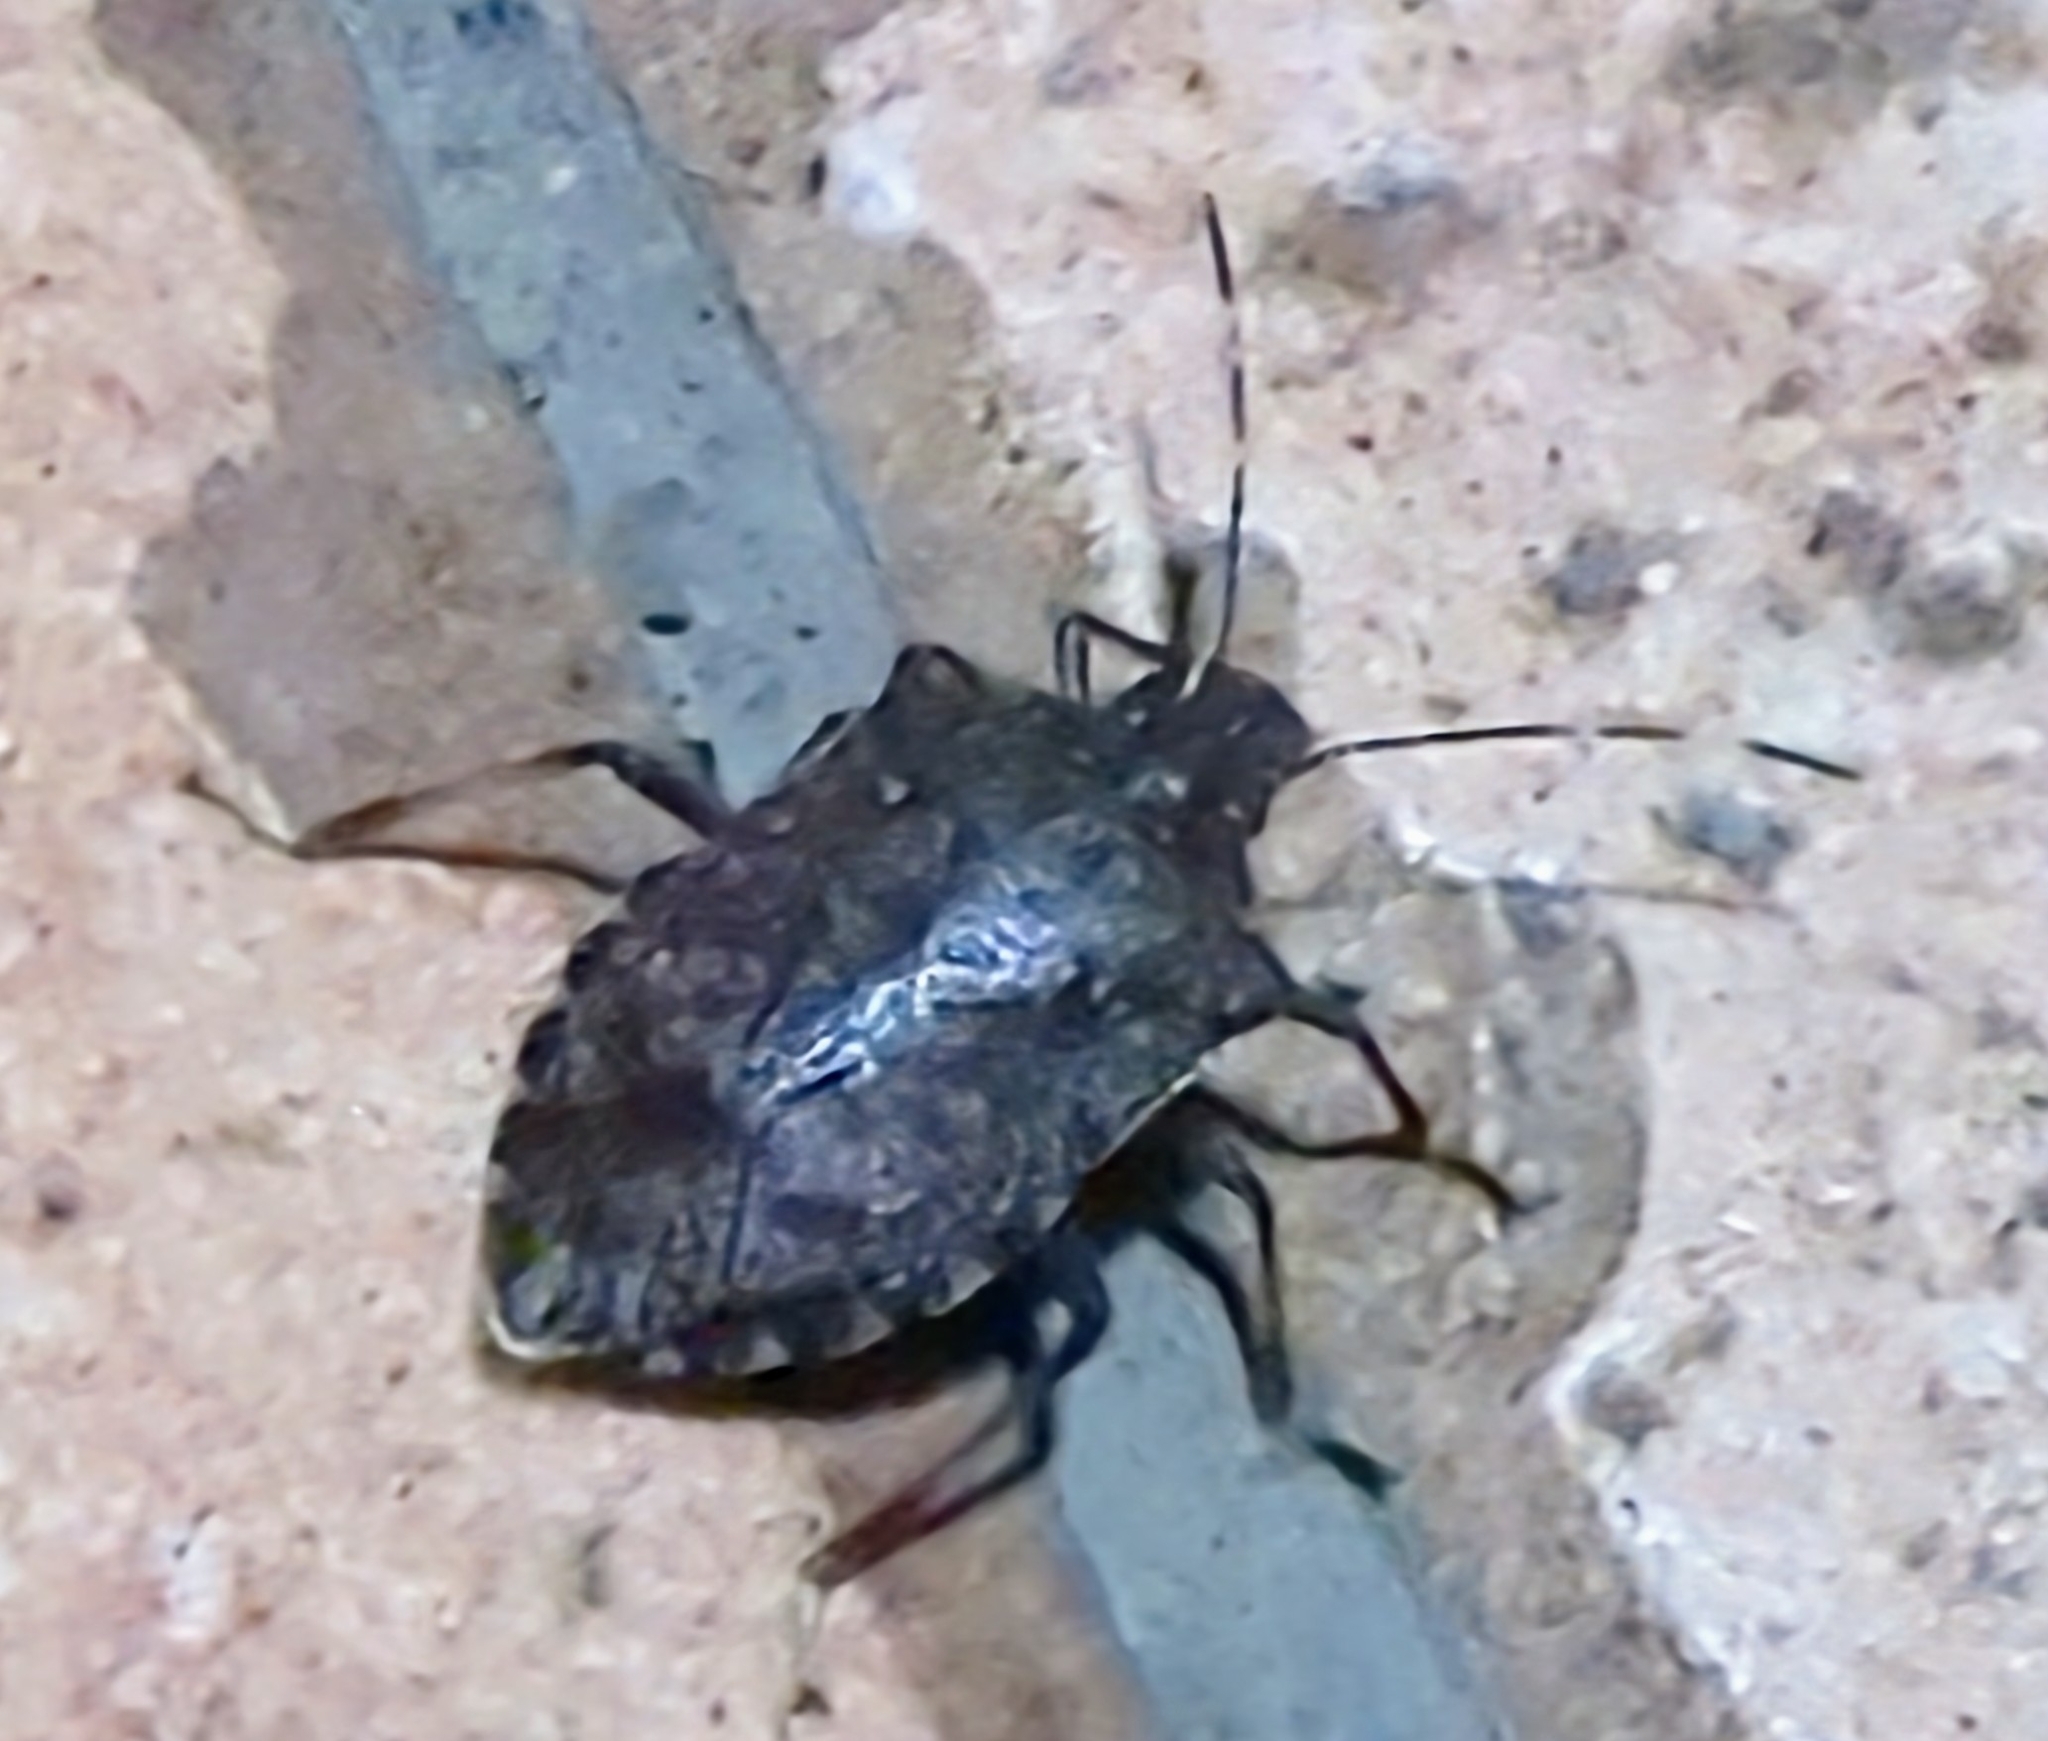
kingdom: Animalia
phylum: Arthropoda
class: Insecta
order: Hemiptera
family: Pentatomidae
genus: Halyomorpha
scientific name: Halyomorpha halys
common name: Brown marmorated stink bug
